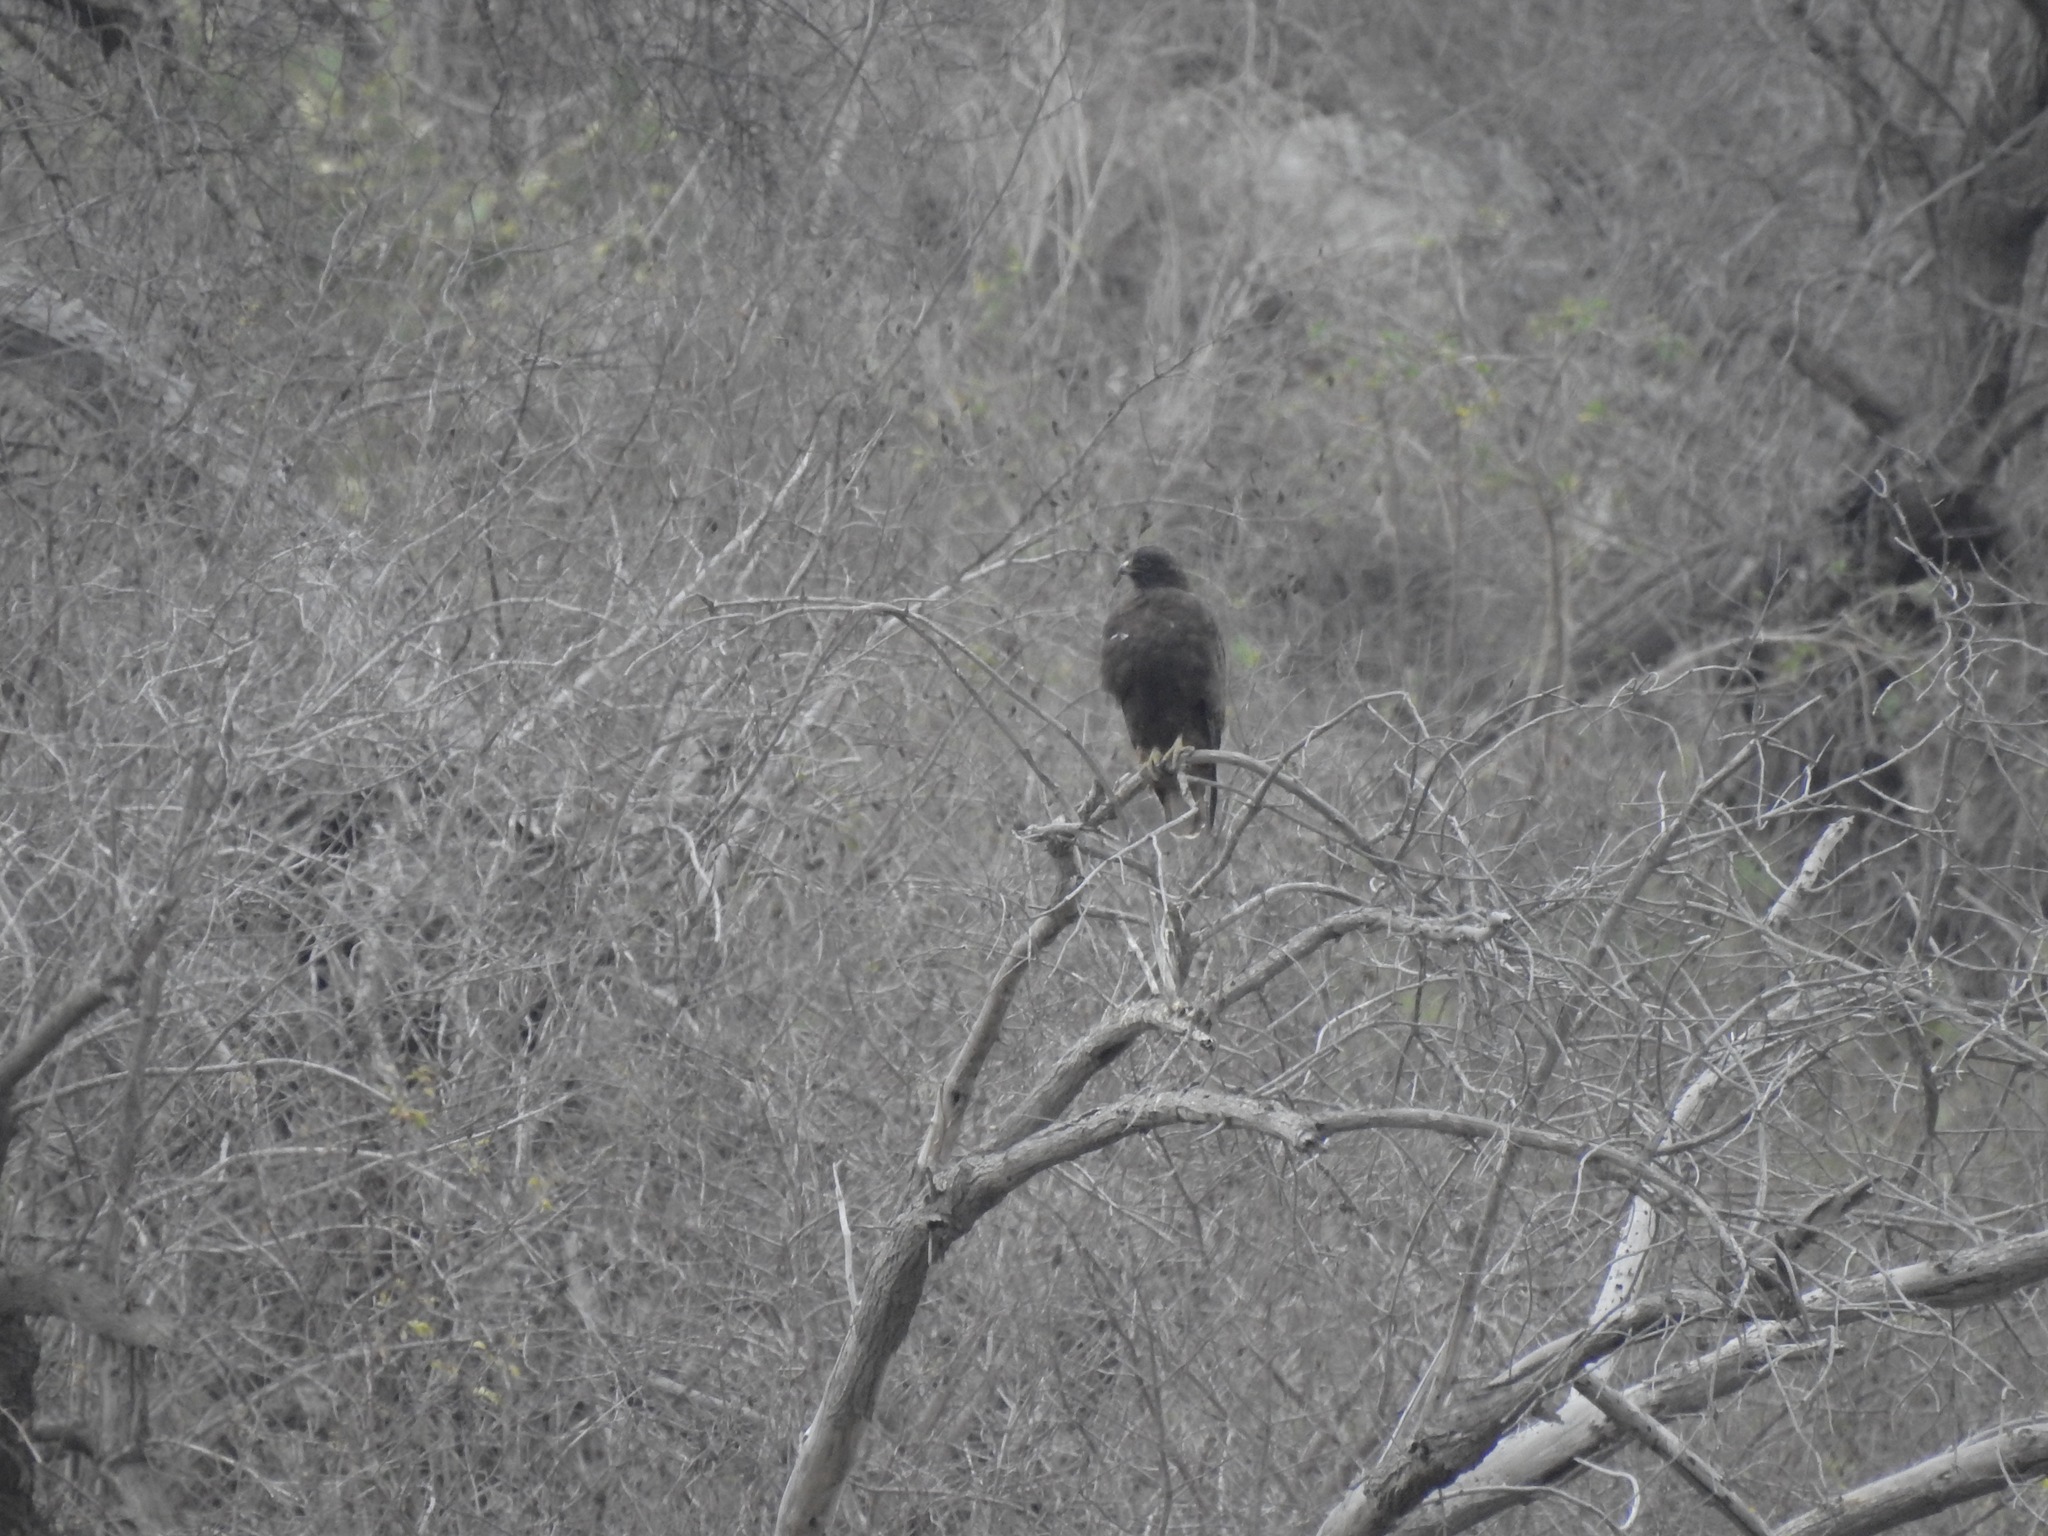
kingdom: Animalia
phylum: Chordata
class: Aves
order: Accipitriformes
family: Accipitridae
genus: Buteo
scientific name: Buteo jamaicensis
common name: Red-tailed hawk
